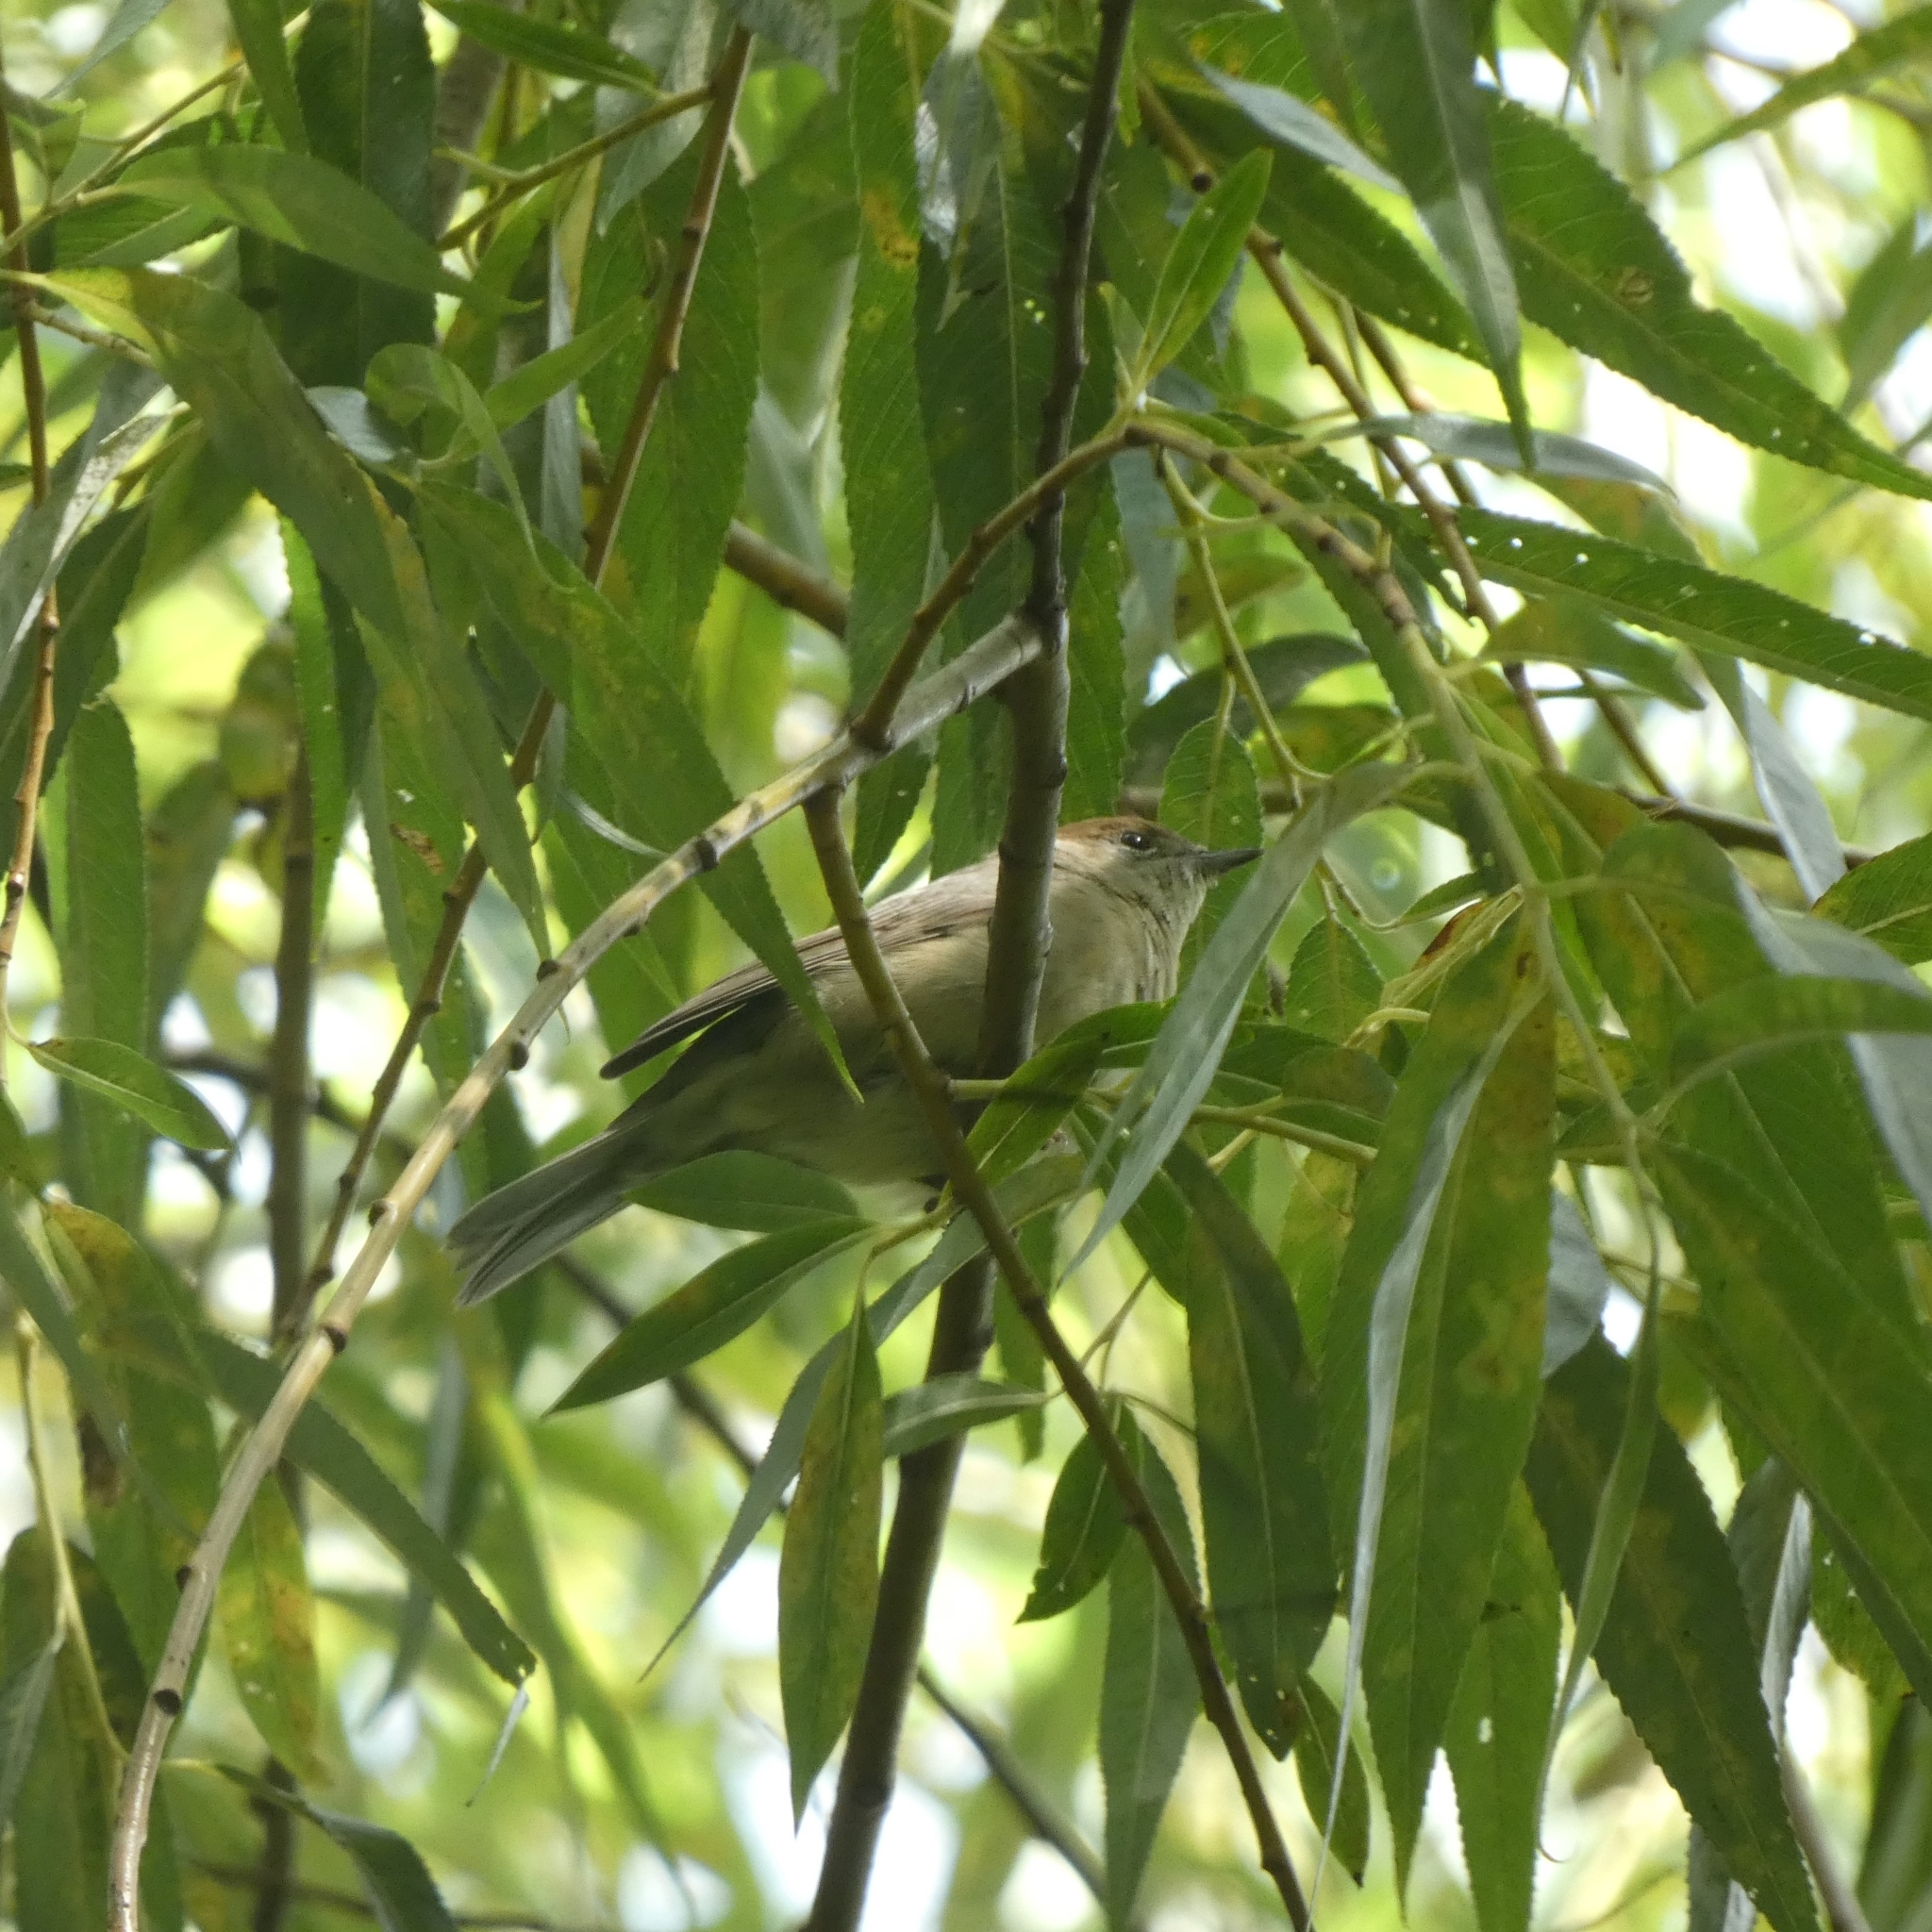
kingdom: Animalia
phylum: Chordata
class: Aves
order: Passeriformes
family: Sylviidae
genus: Sylvia
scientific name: Sylvia atricapilla
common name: Eurasian blackcap
